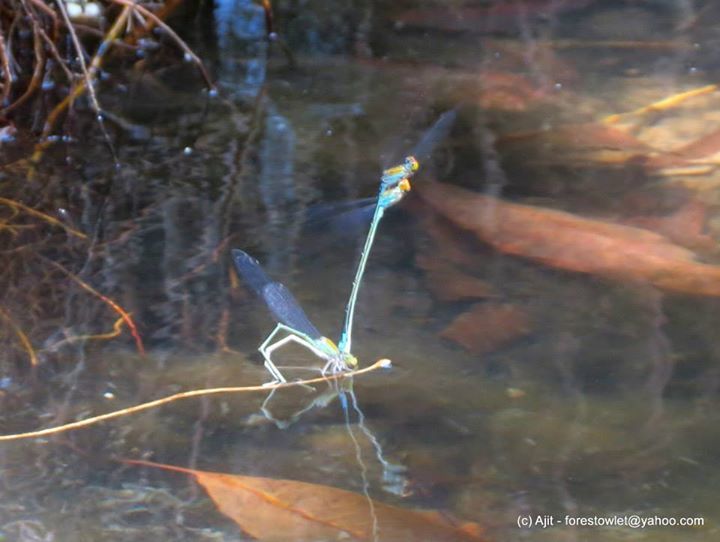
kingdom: Animalia
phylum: Arthropoda
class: Insecta
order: Odonata
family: Coenagrionidae
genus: Pseudagrion
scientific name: Pseudagrion rubriceps
